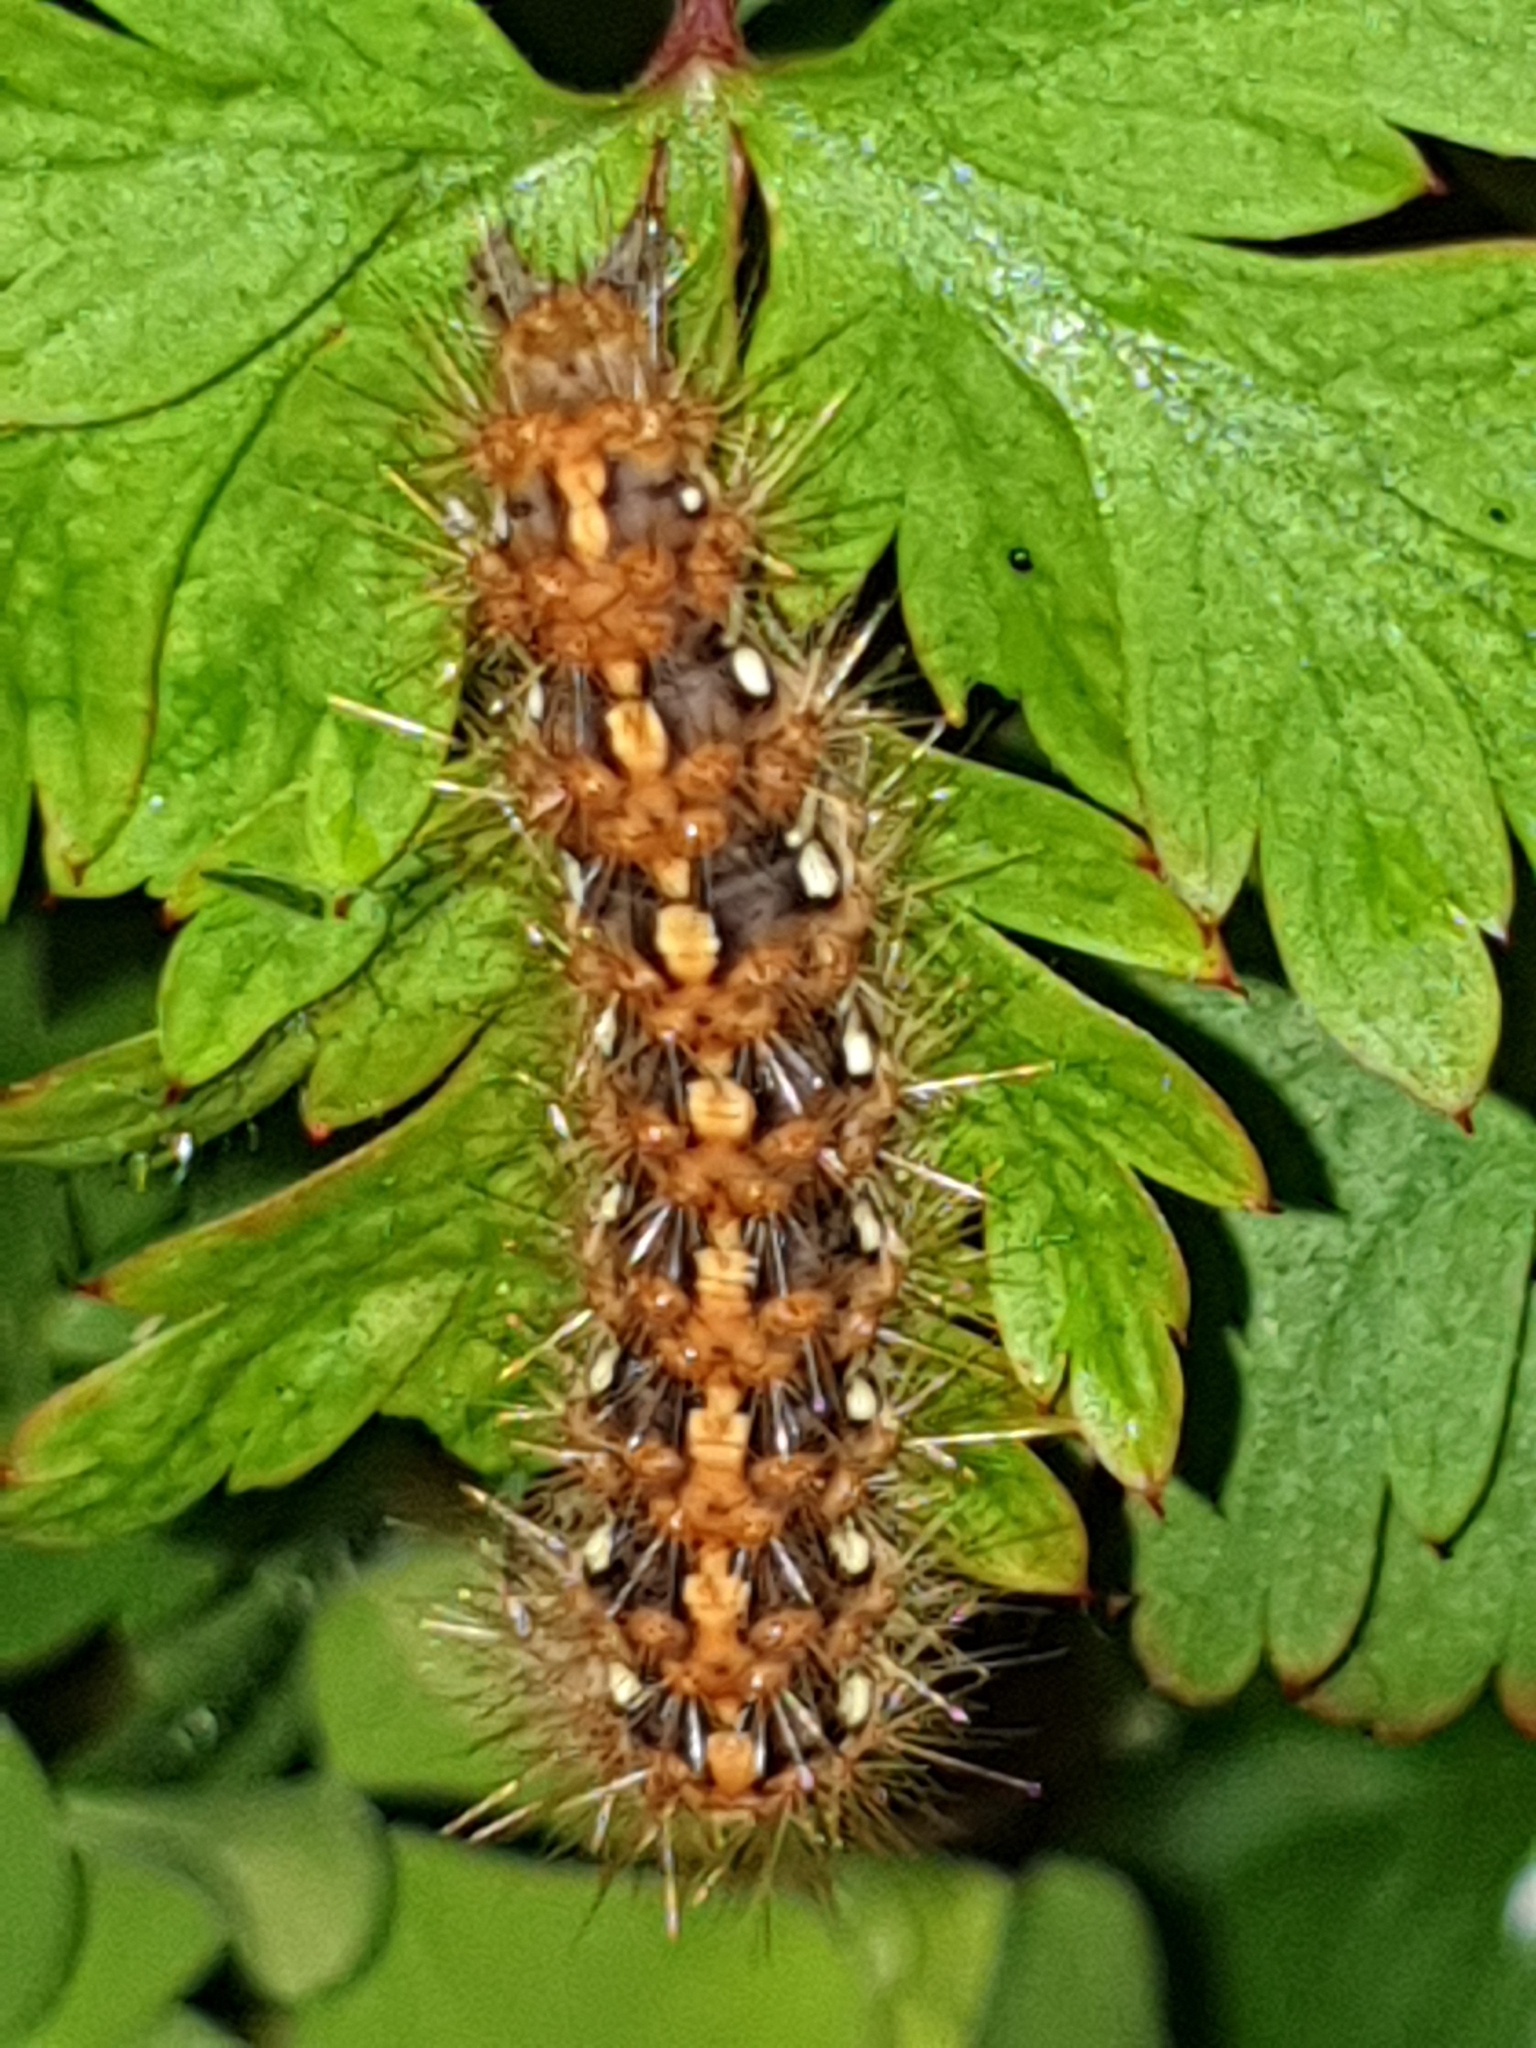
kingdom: Animalia
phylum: Arthropoda
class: Insecta
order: Lepidoptera
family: Erebidae
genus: Euplagia
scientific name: Euplagia quadripunctaria
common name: Jersey tiger
